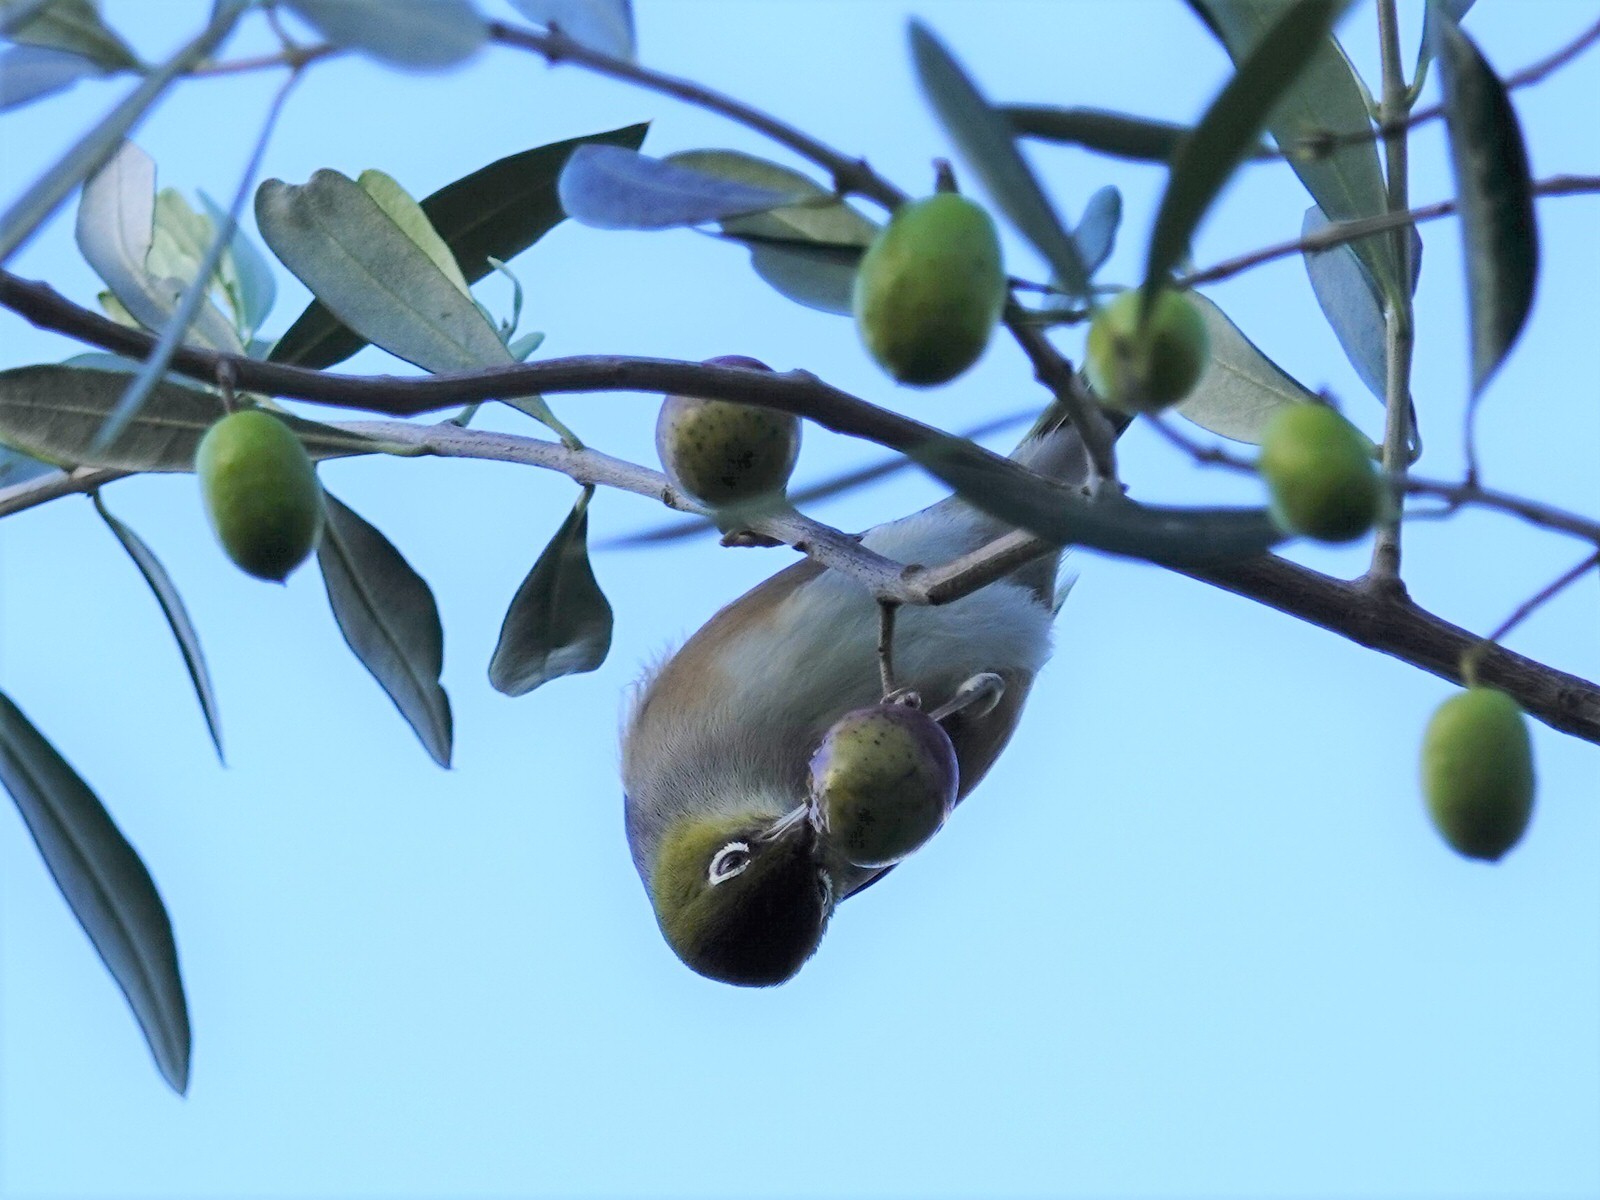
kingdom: Animalia
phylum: Chordata
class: Aves
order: Passeriformes
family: Zosteropidae
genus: Zosterops
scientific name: Zosterops lateralis
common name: Silvereye
